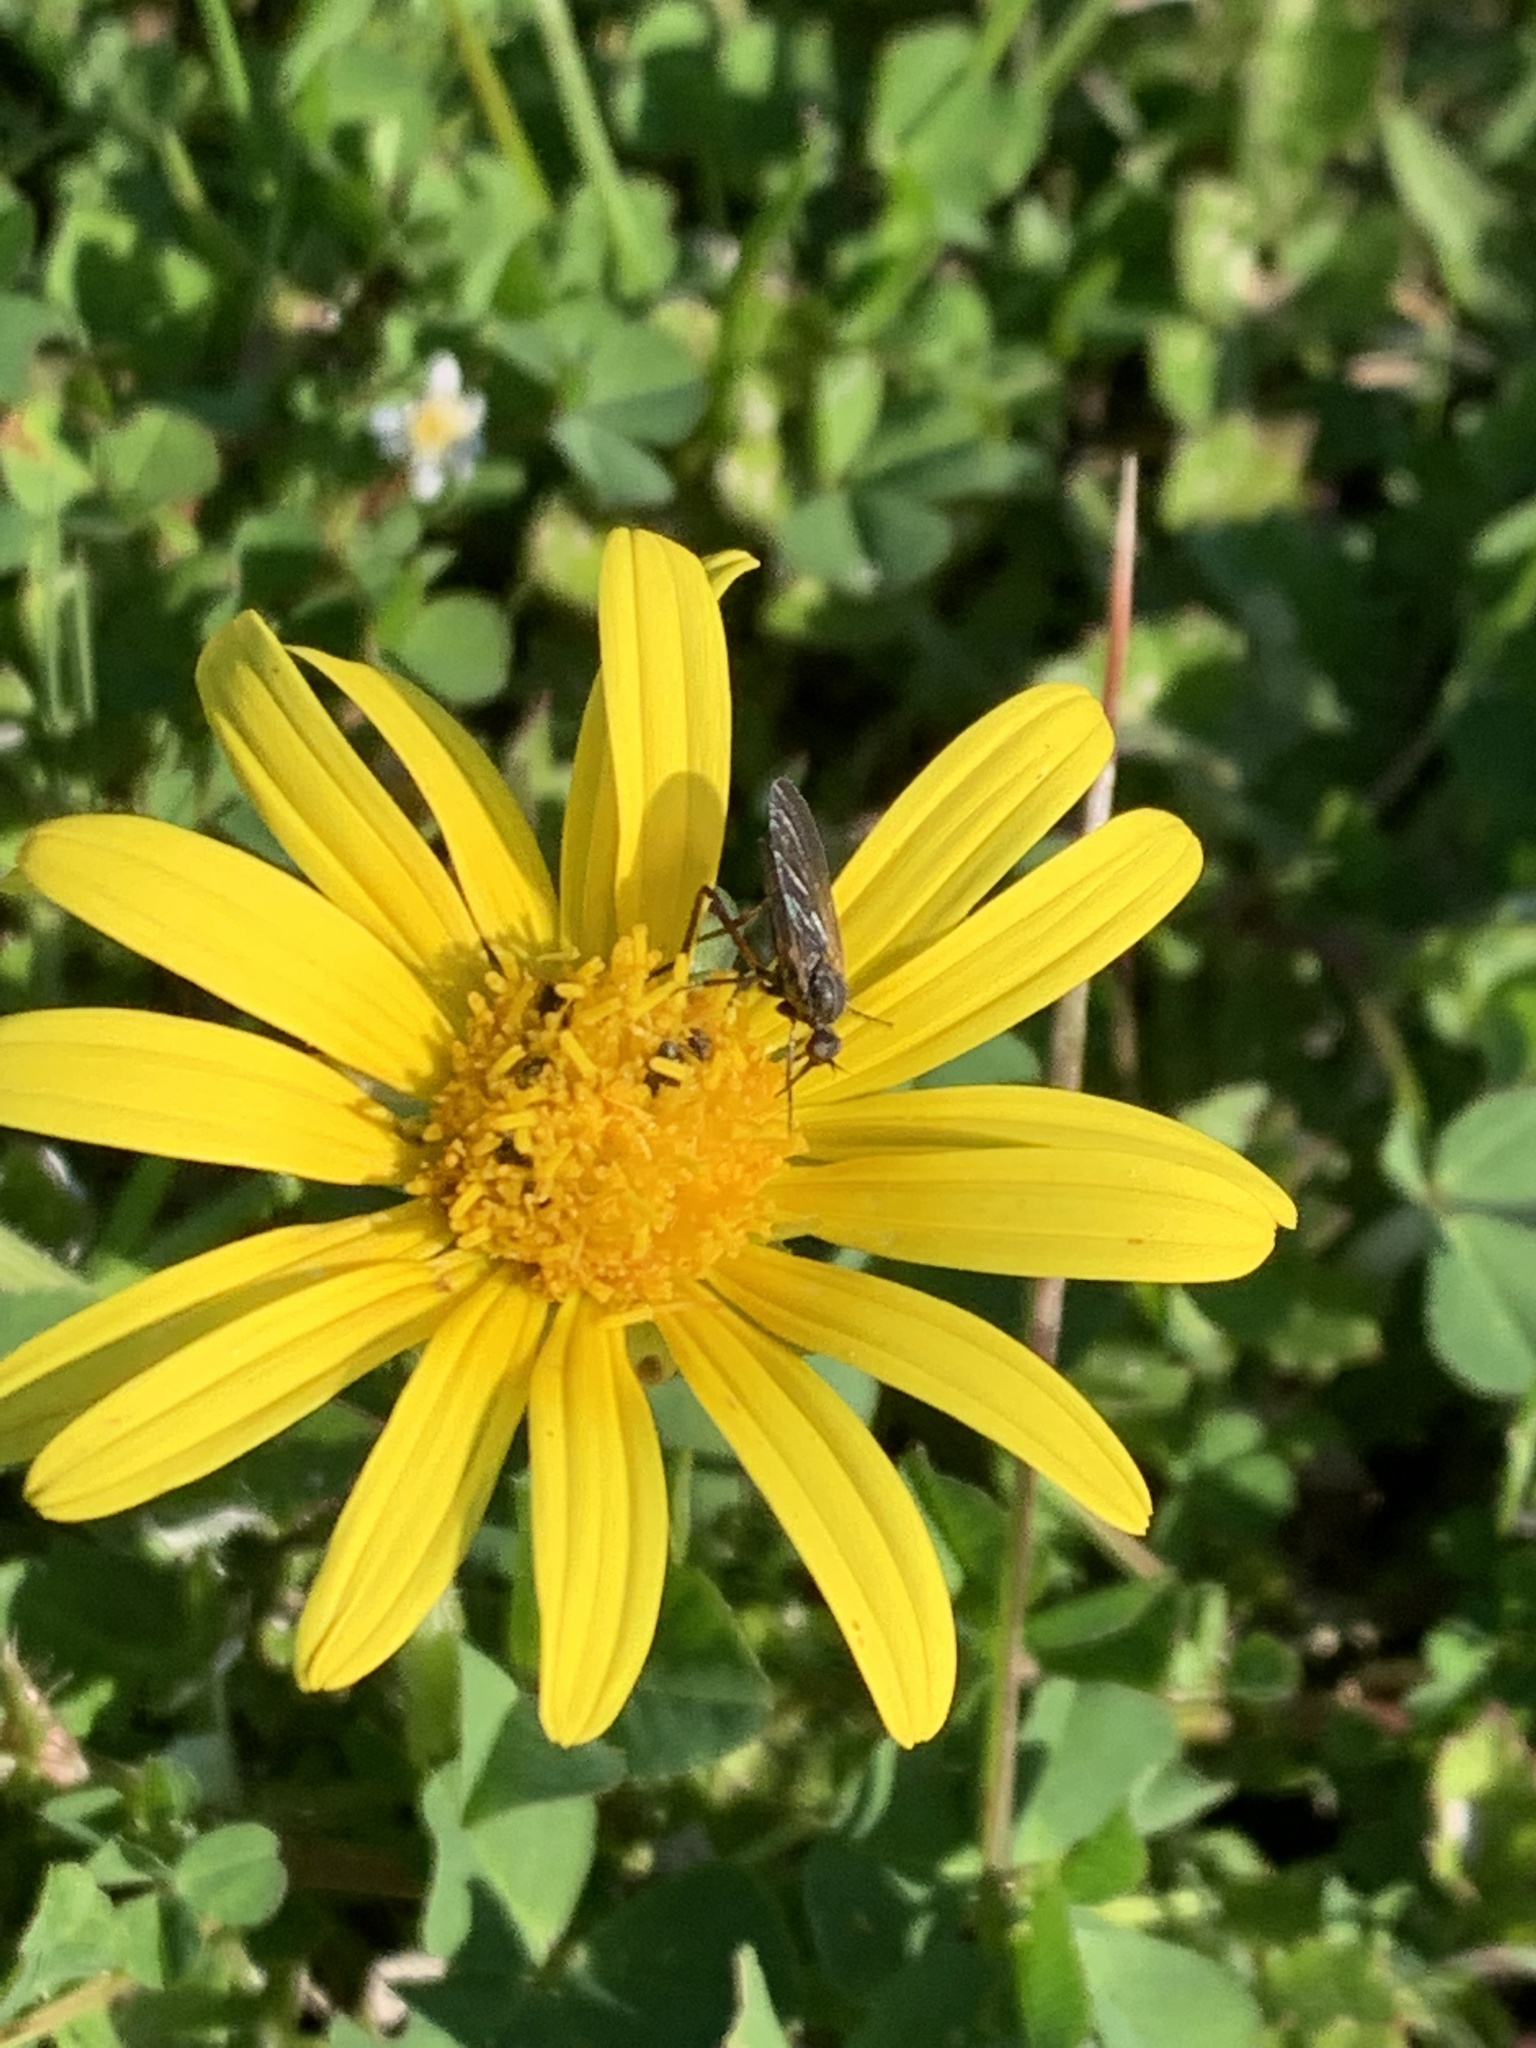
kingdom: Plantae
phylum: Tracheophyta
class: Magnoliopsida
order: Asterales
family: Asteraceae
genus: Arctotheca
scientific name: Arctotheca prostrata
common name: Capeweed
